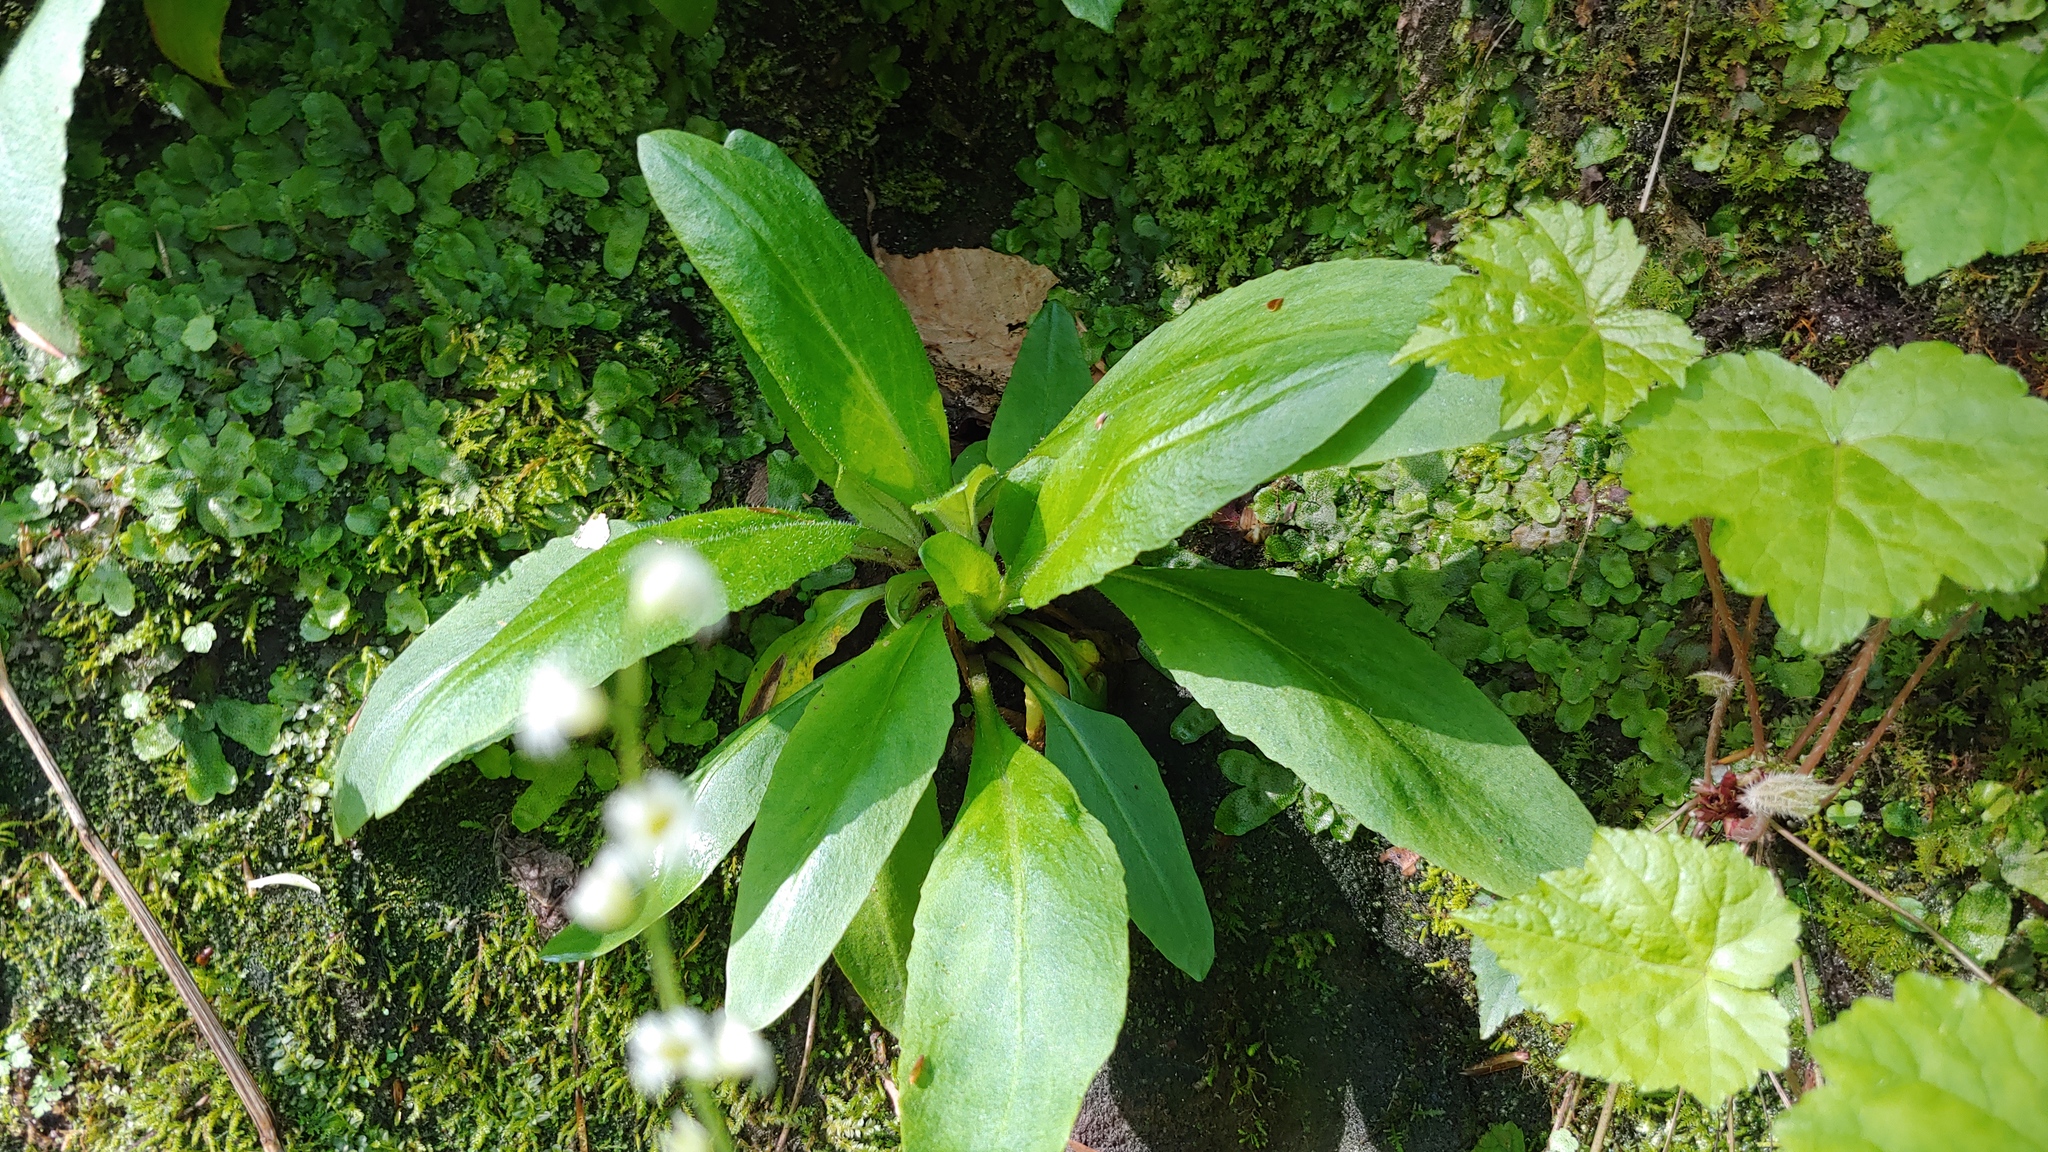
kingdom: Plantae
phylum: Tracheophyta
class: Magnoliopsida
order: Saxifragales
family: Saxifragaceae
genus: Micranthes
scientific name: Micranthes pensylvanica
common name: Marsh saxifrage
